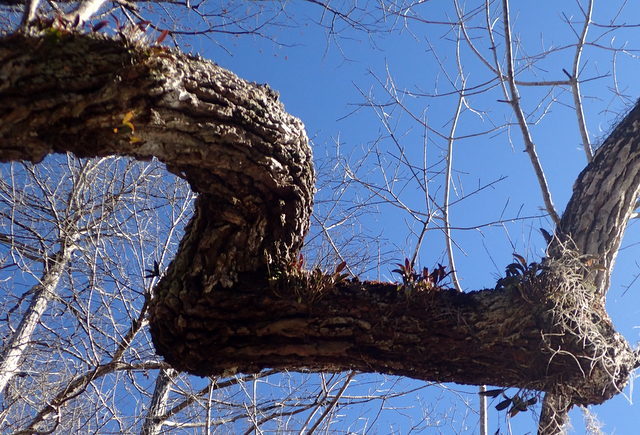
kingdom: Plantae
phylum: Tracheophyta
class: Liliopsida
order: Asparagales
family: Orchidaceae
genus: Epidendrum
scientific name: Epidendrum conopseum
